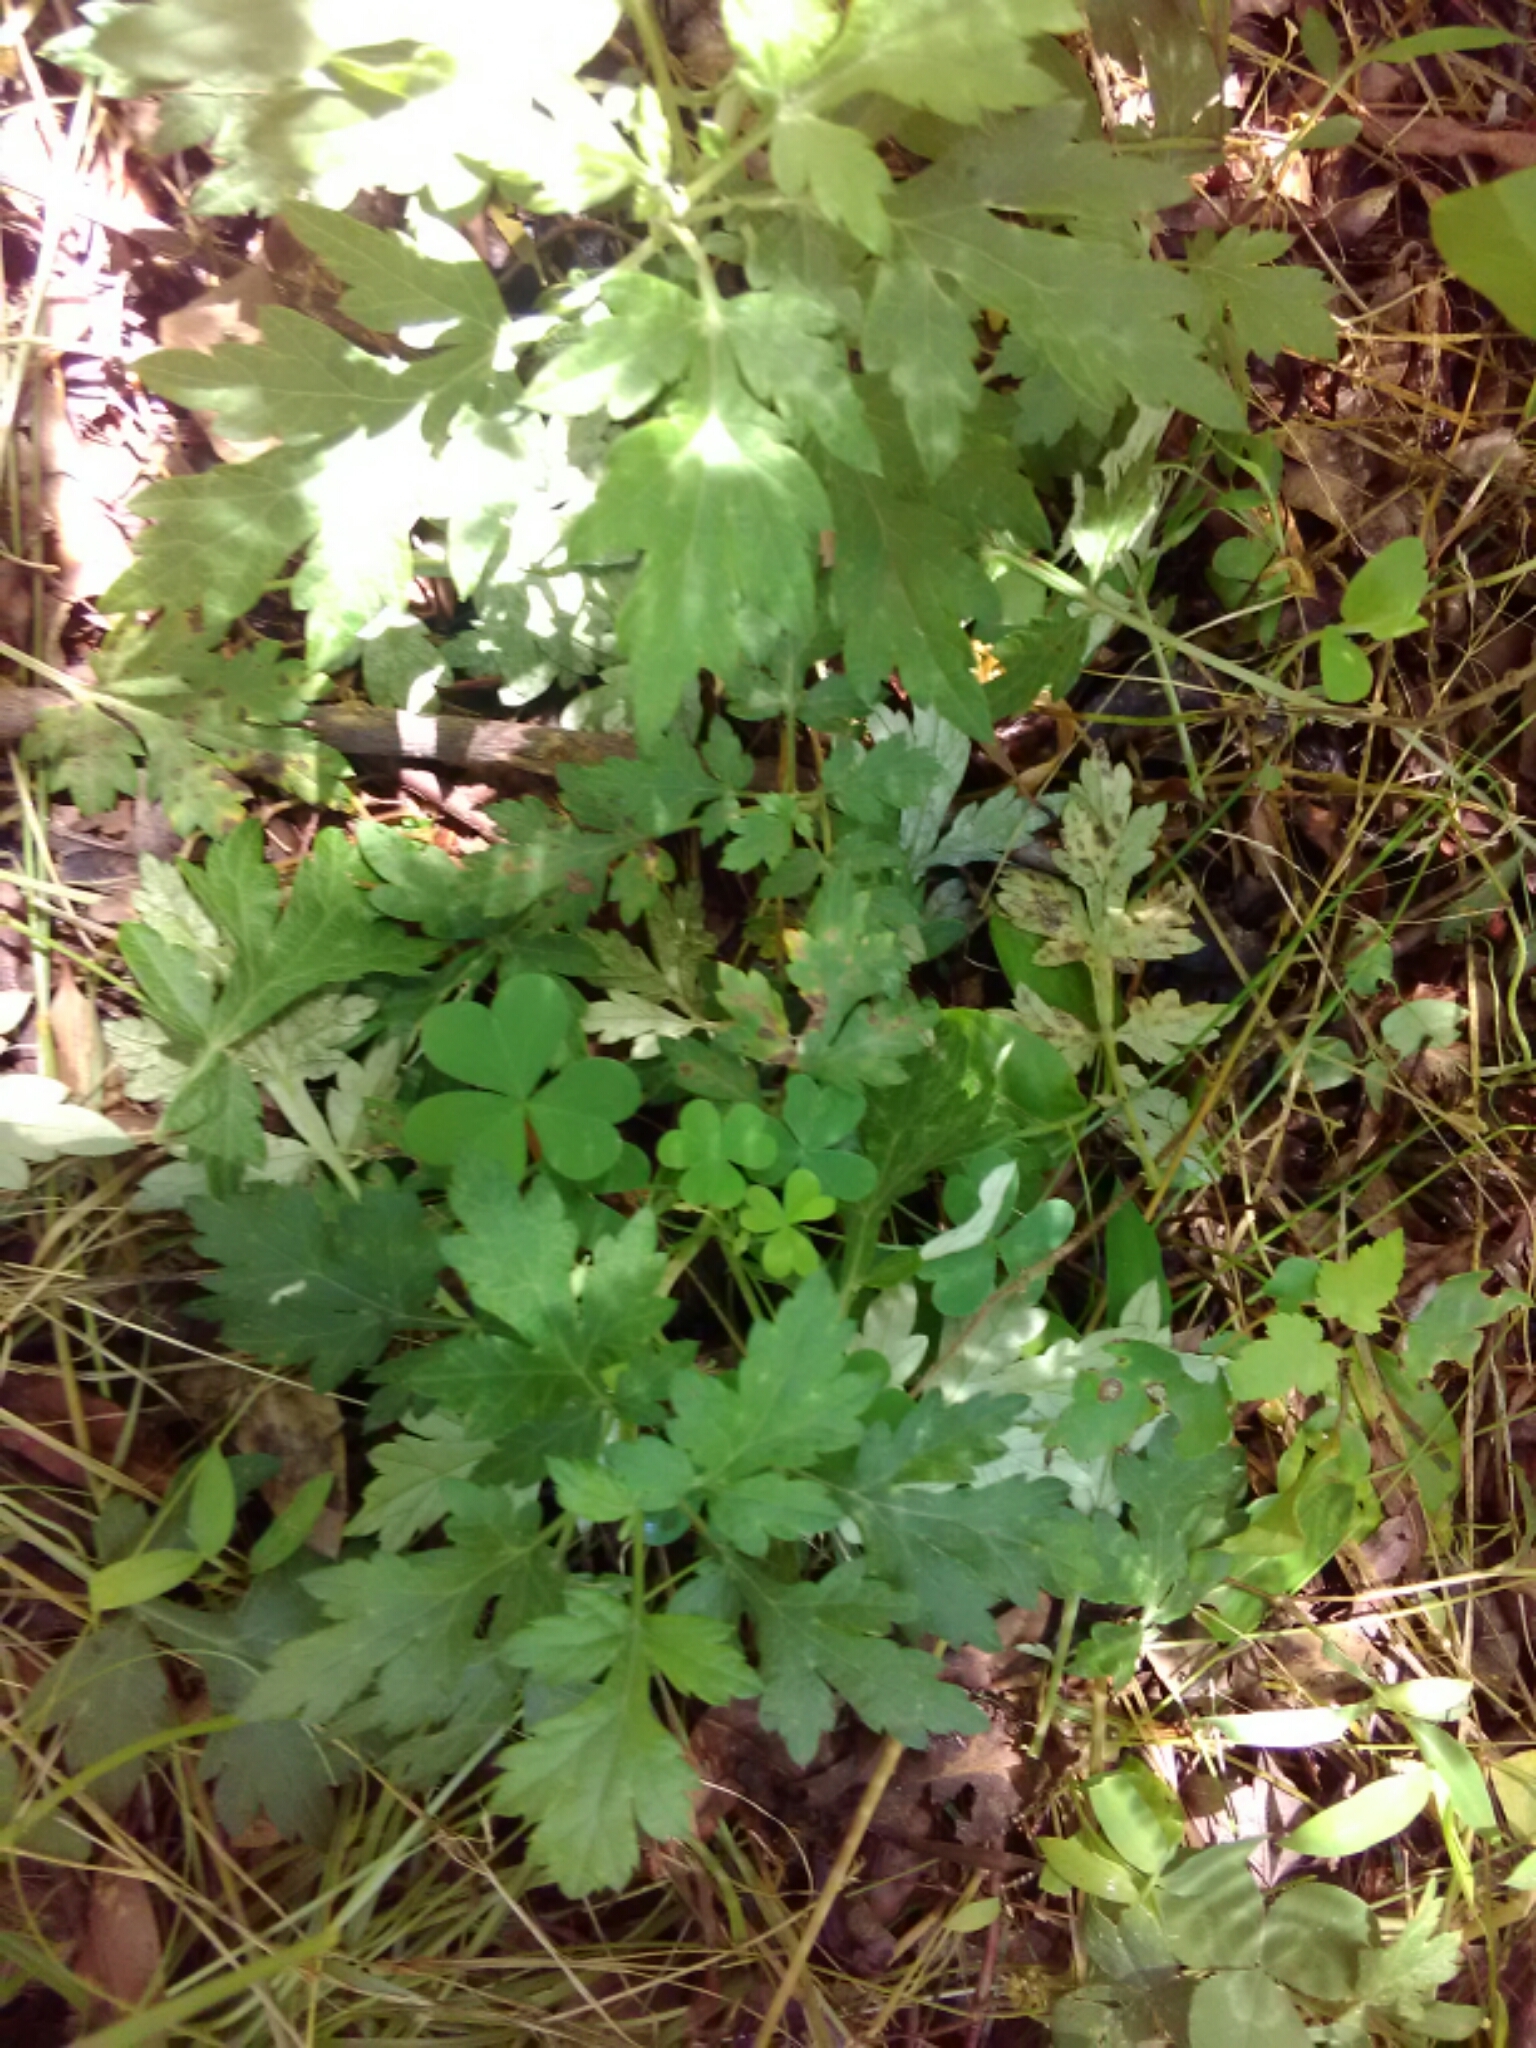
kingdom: Plantae
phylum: Tracheophyta
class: Magnoliopsida
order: Asterales
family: Asteraceae
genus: Artemisia
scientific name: Artemisia vulgaris
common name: Mugwort
